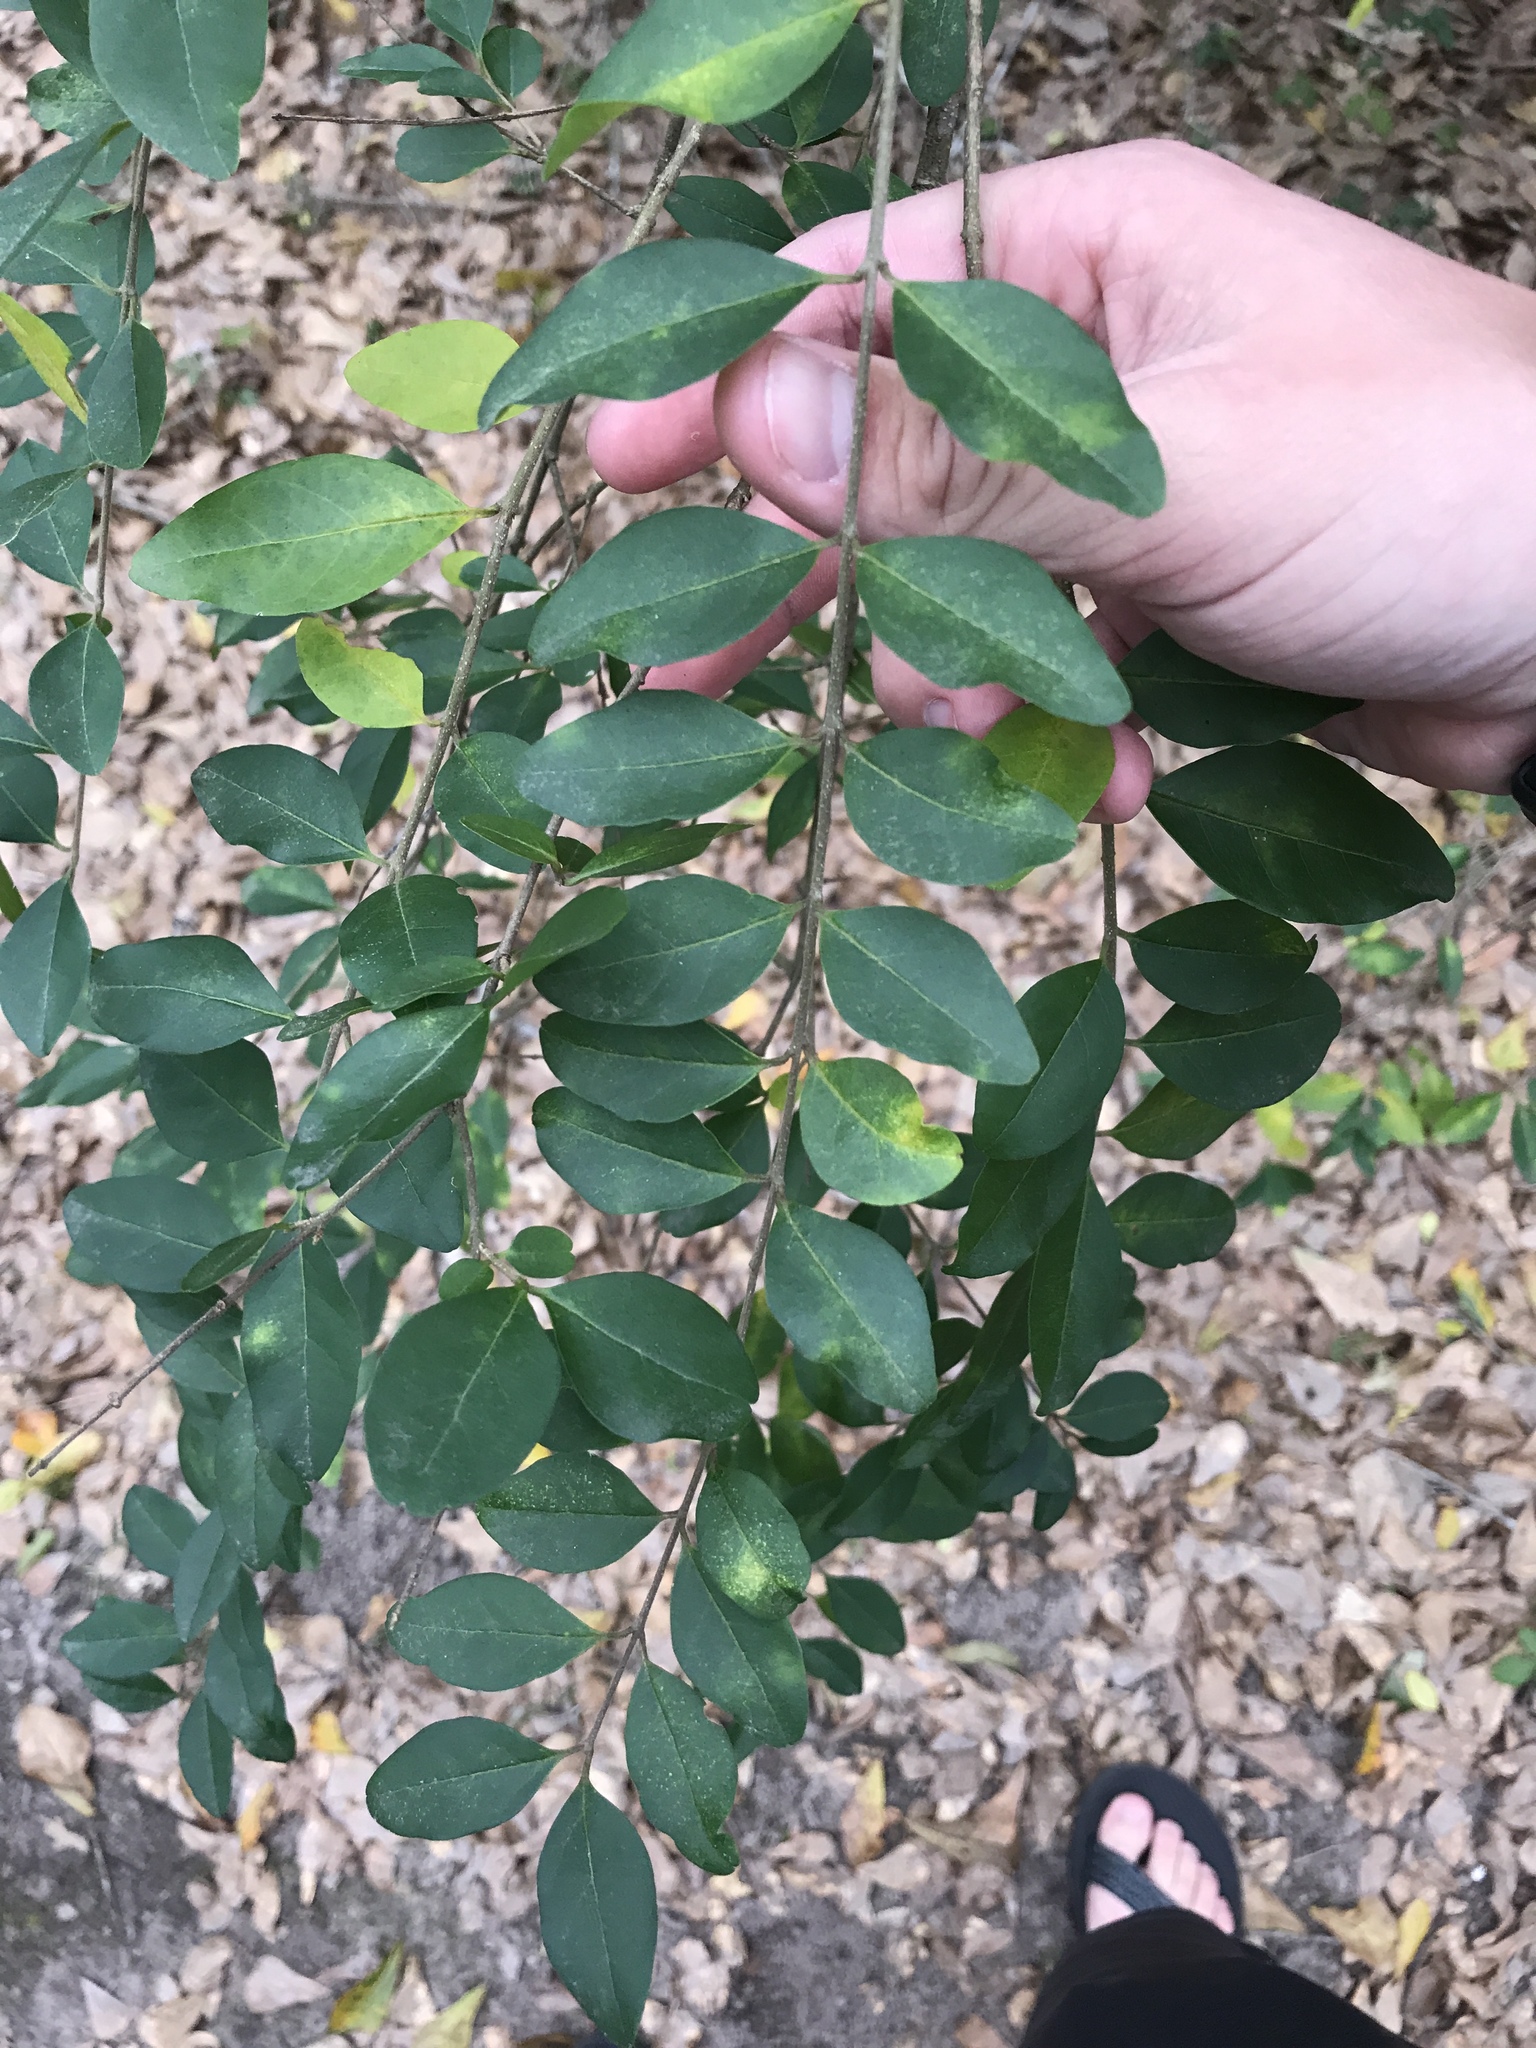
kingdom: Plantae
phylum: Tracheophyta
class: Magnoliopsida
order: Lamiales
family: Oleaceae
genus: Ligustrum
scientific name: Ligustrum sinense
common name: Chinese privet
